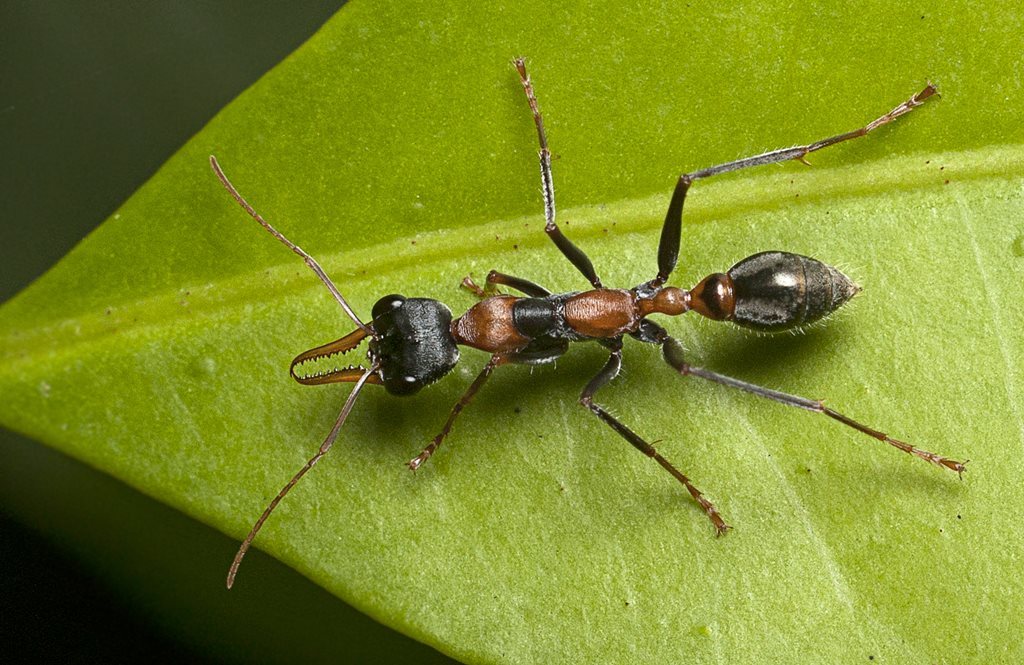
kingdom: Animalia
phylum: Arthropoda
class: Insecta
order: Hymenoptera
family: Formicidae
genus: Myrmecia
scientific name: Myrmecia nigrocincta
